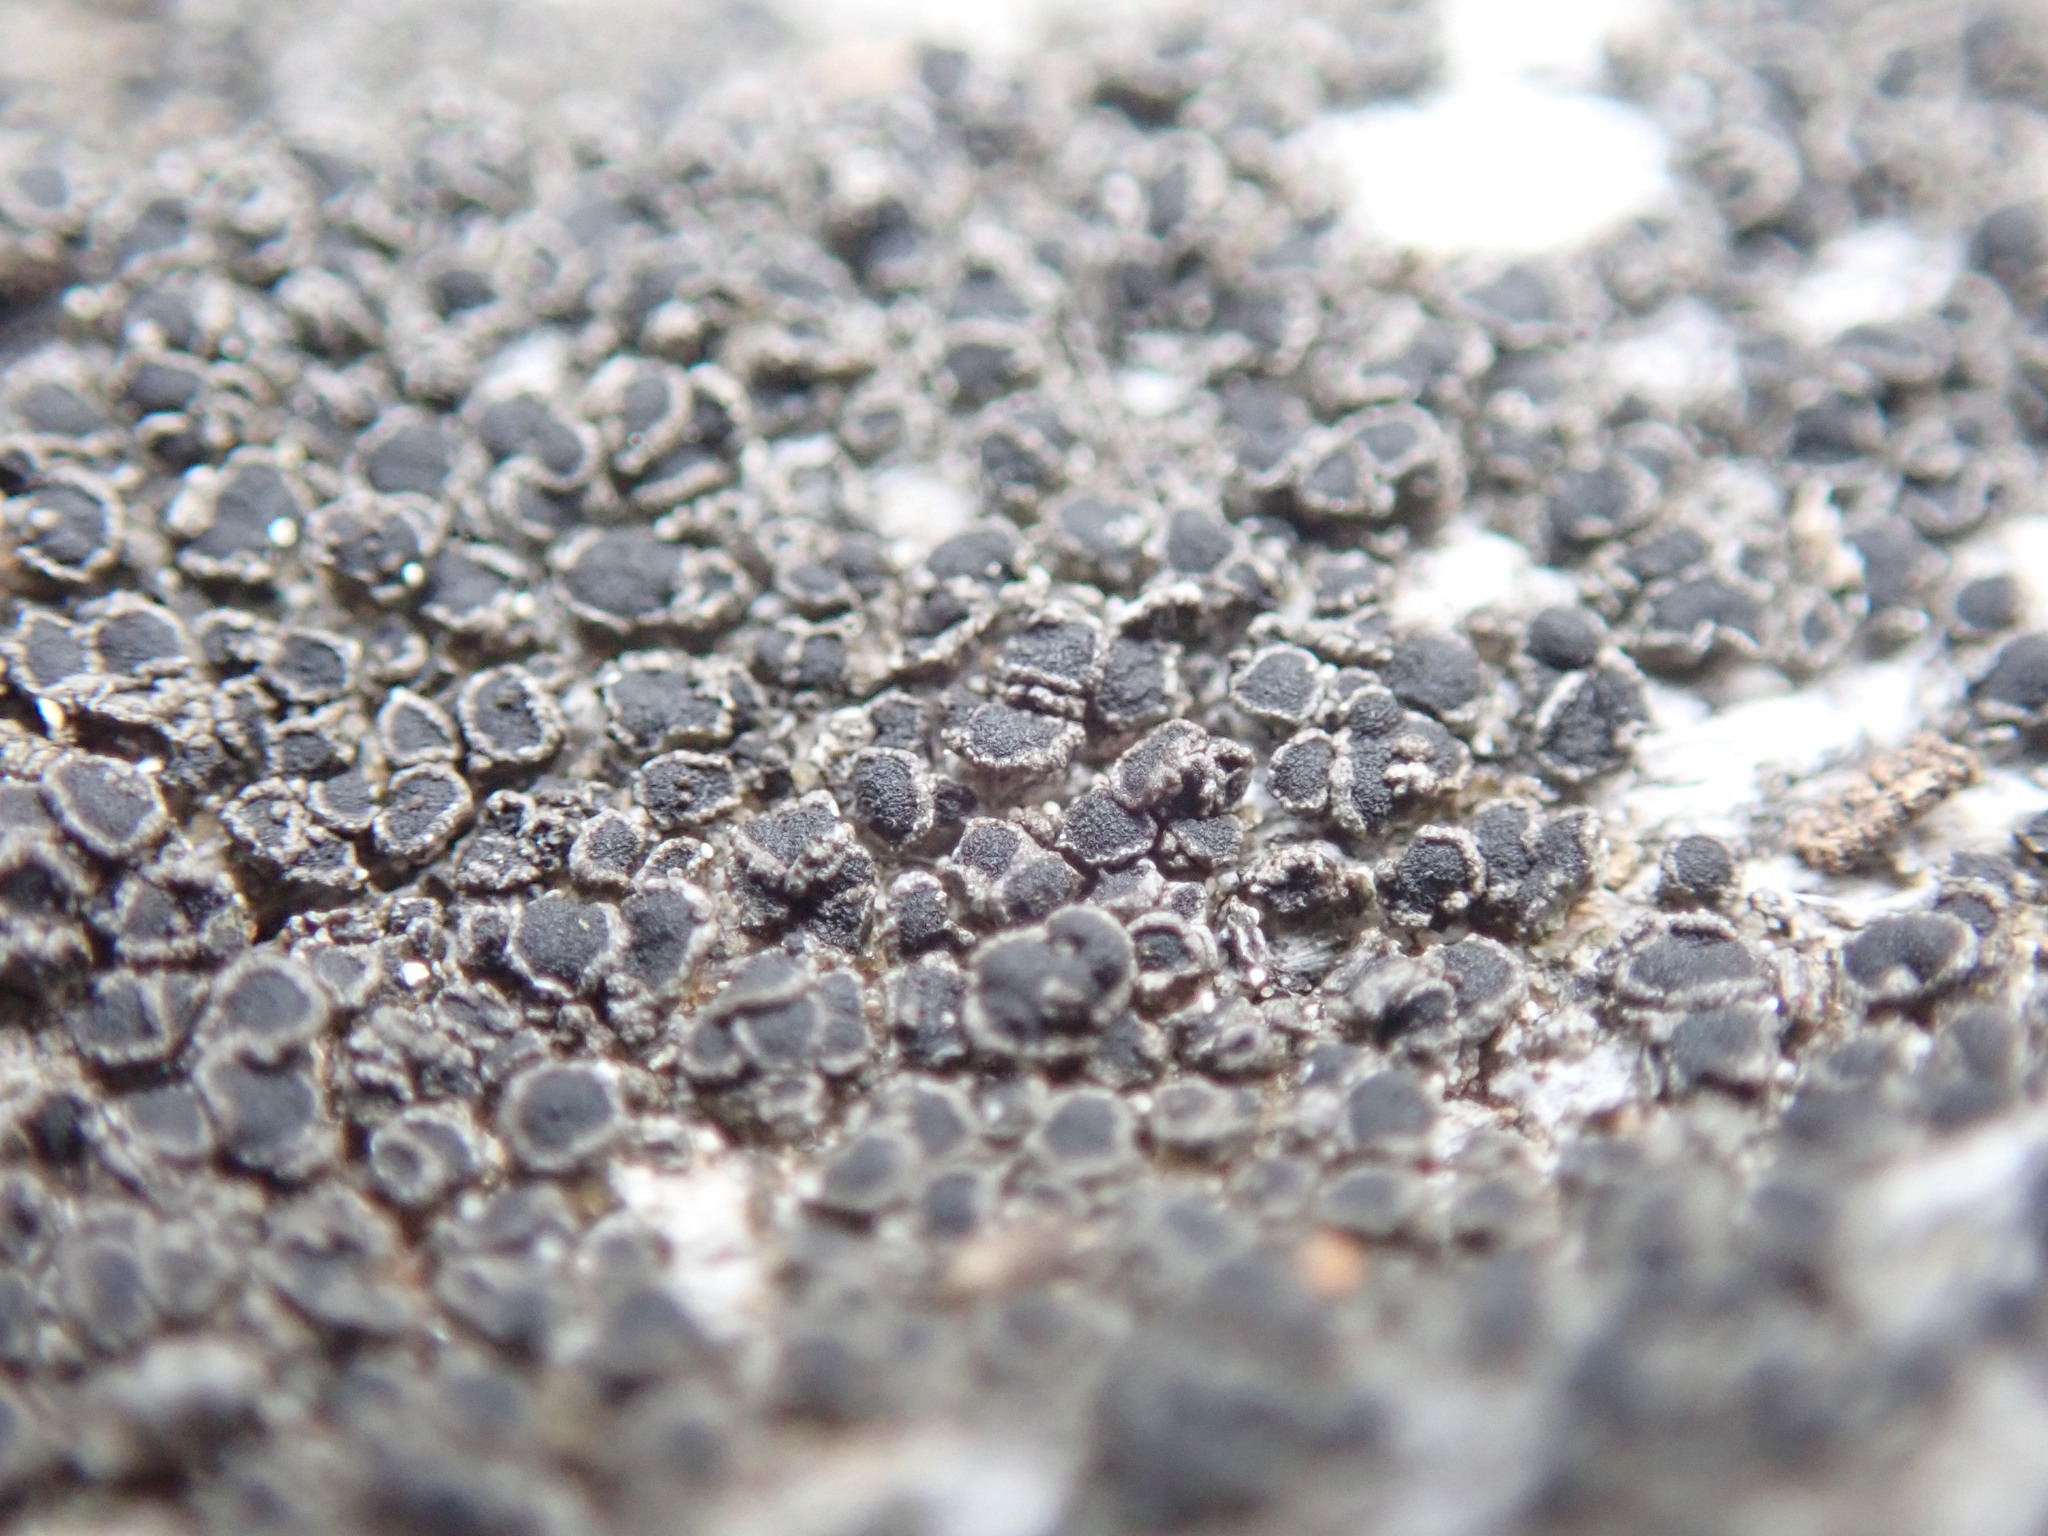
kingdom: Fungi
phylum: Ascomycota
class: Lecanoromycetes
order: Caliciales
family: Physciaceae
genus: Rinodina
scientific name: Rinodina conradii
